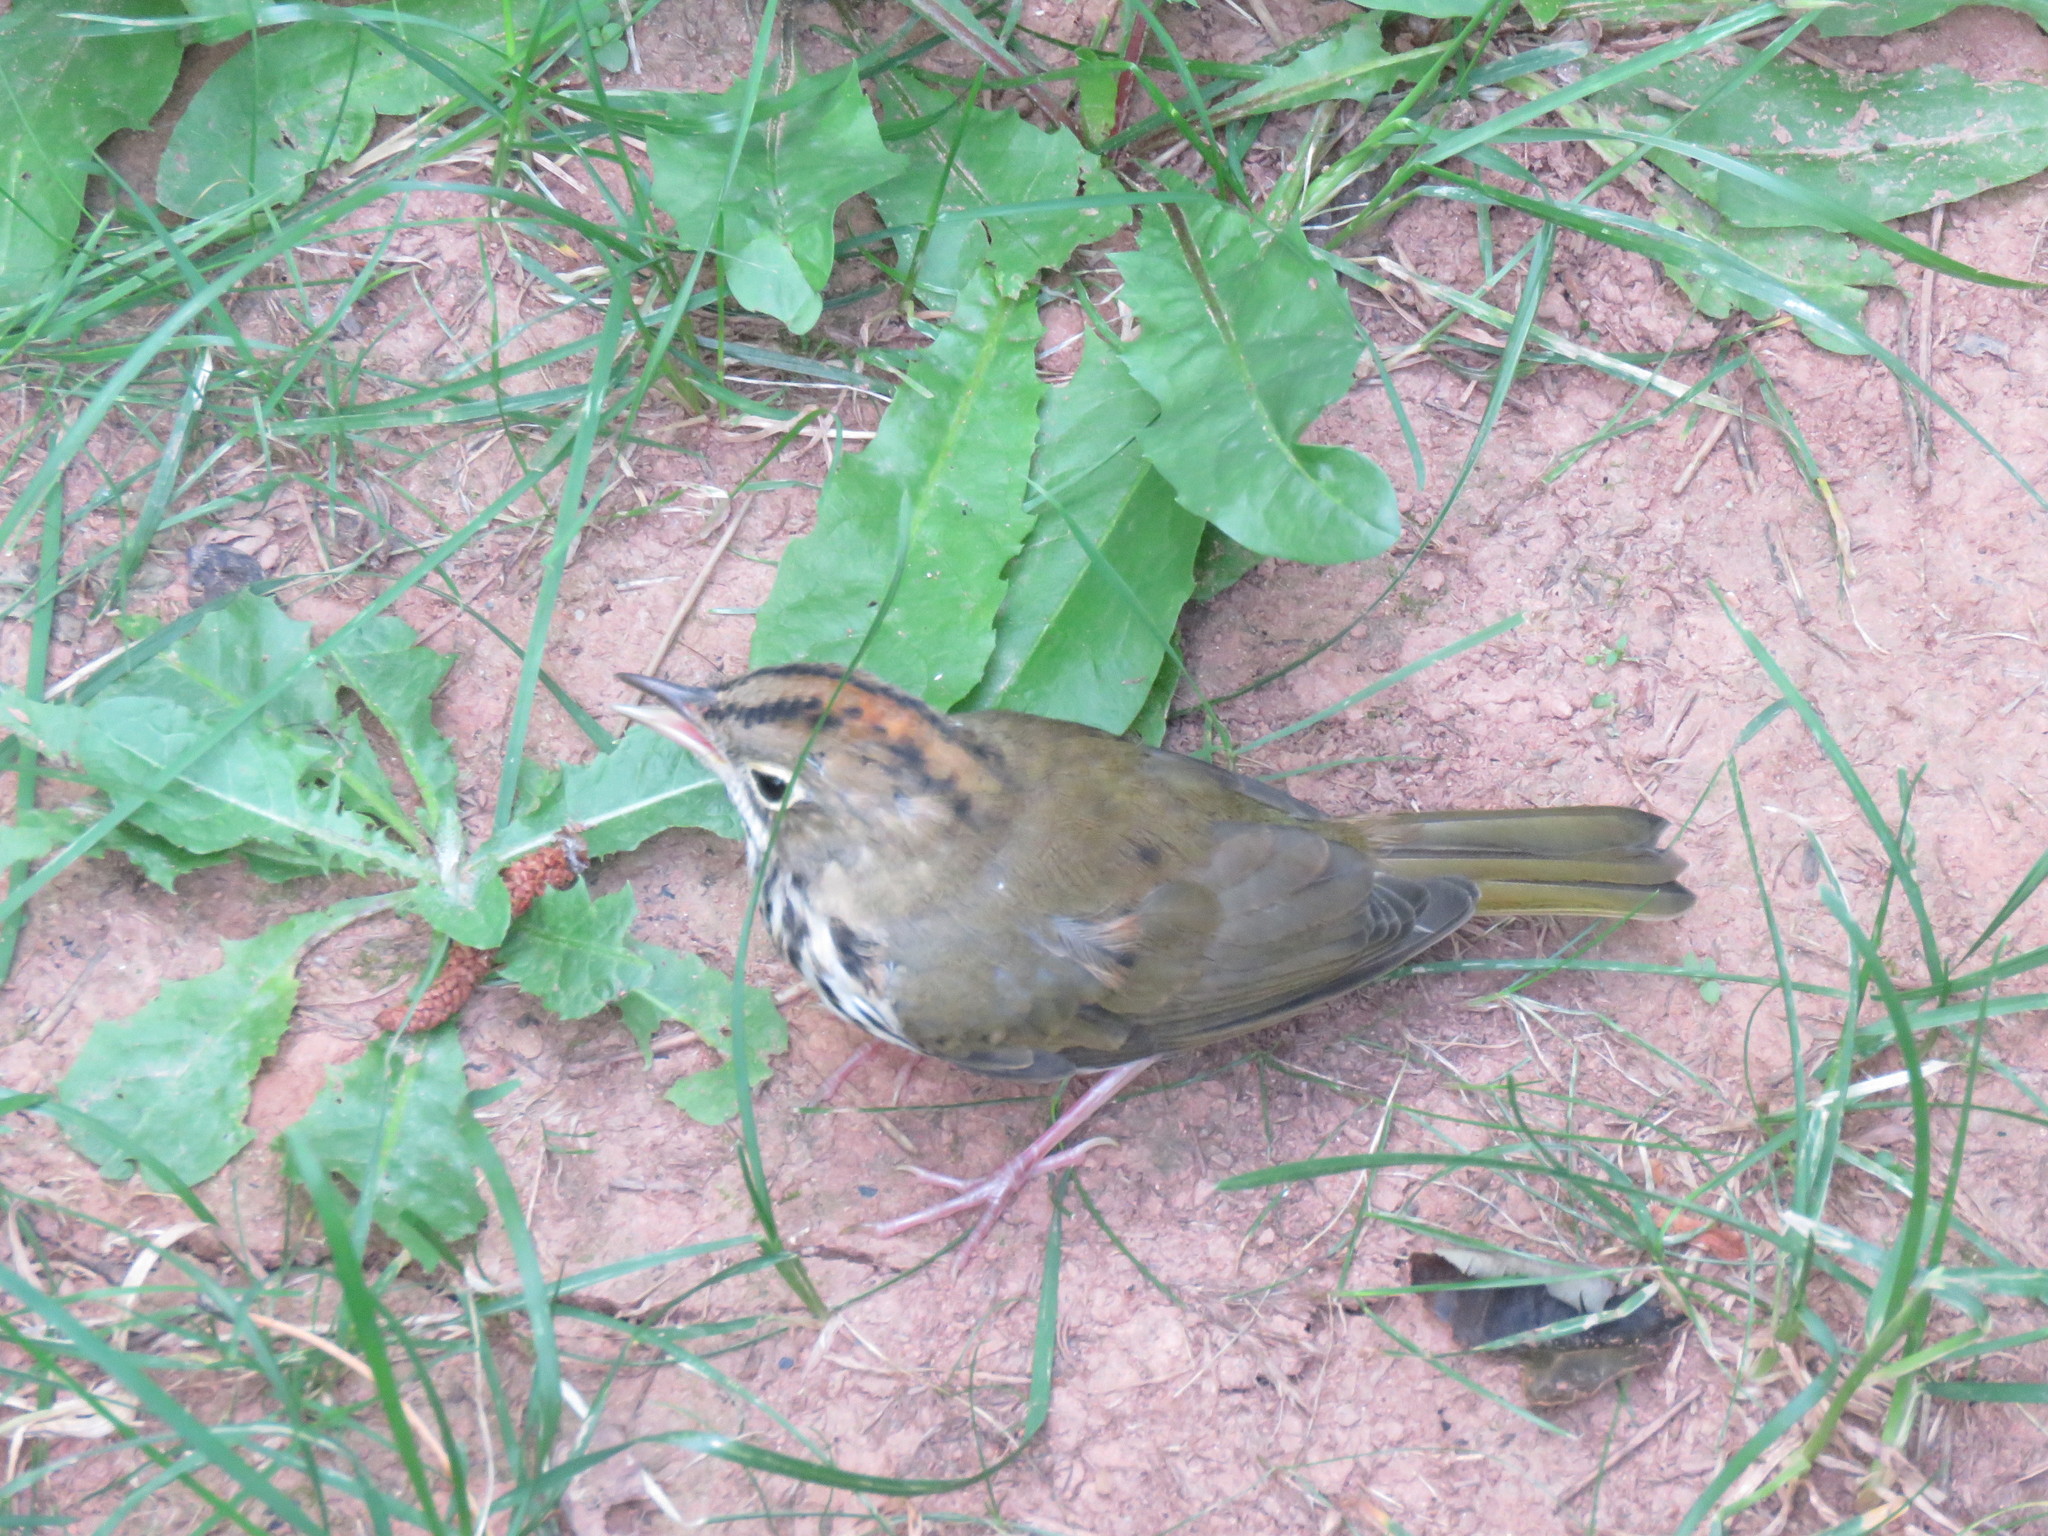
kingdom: Animalia
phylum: Chordata
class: Aves
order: Passeriformes
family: Parulidae
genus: Seiurus
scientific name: Seiurus aurocapilla
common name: Ovenbird
